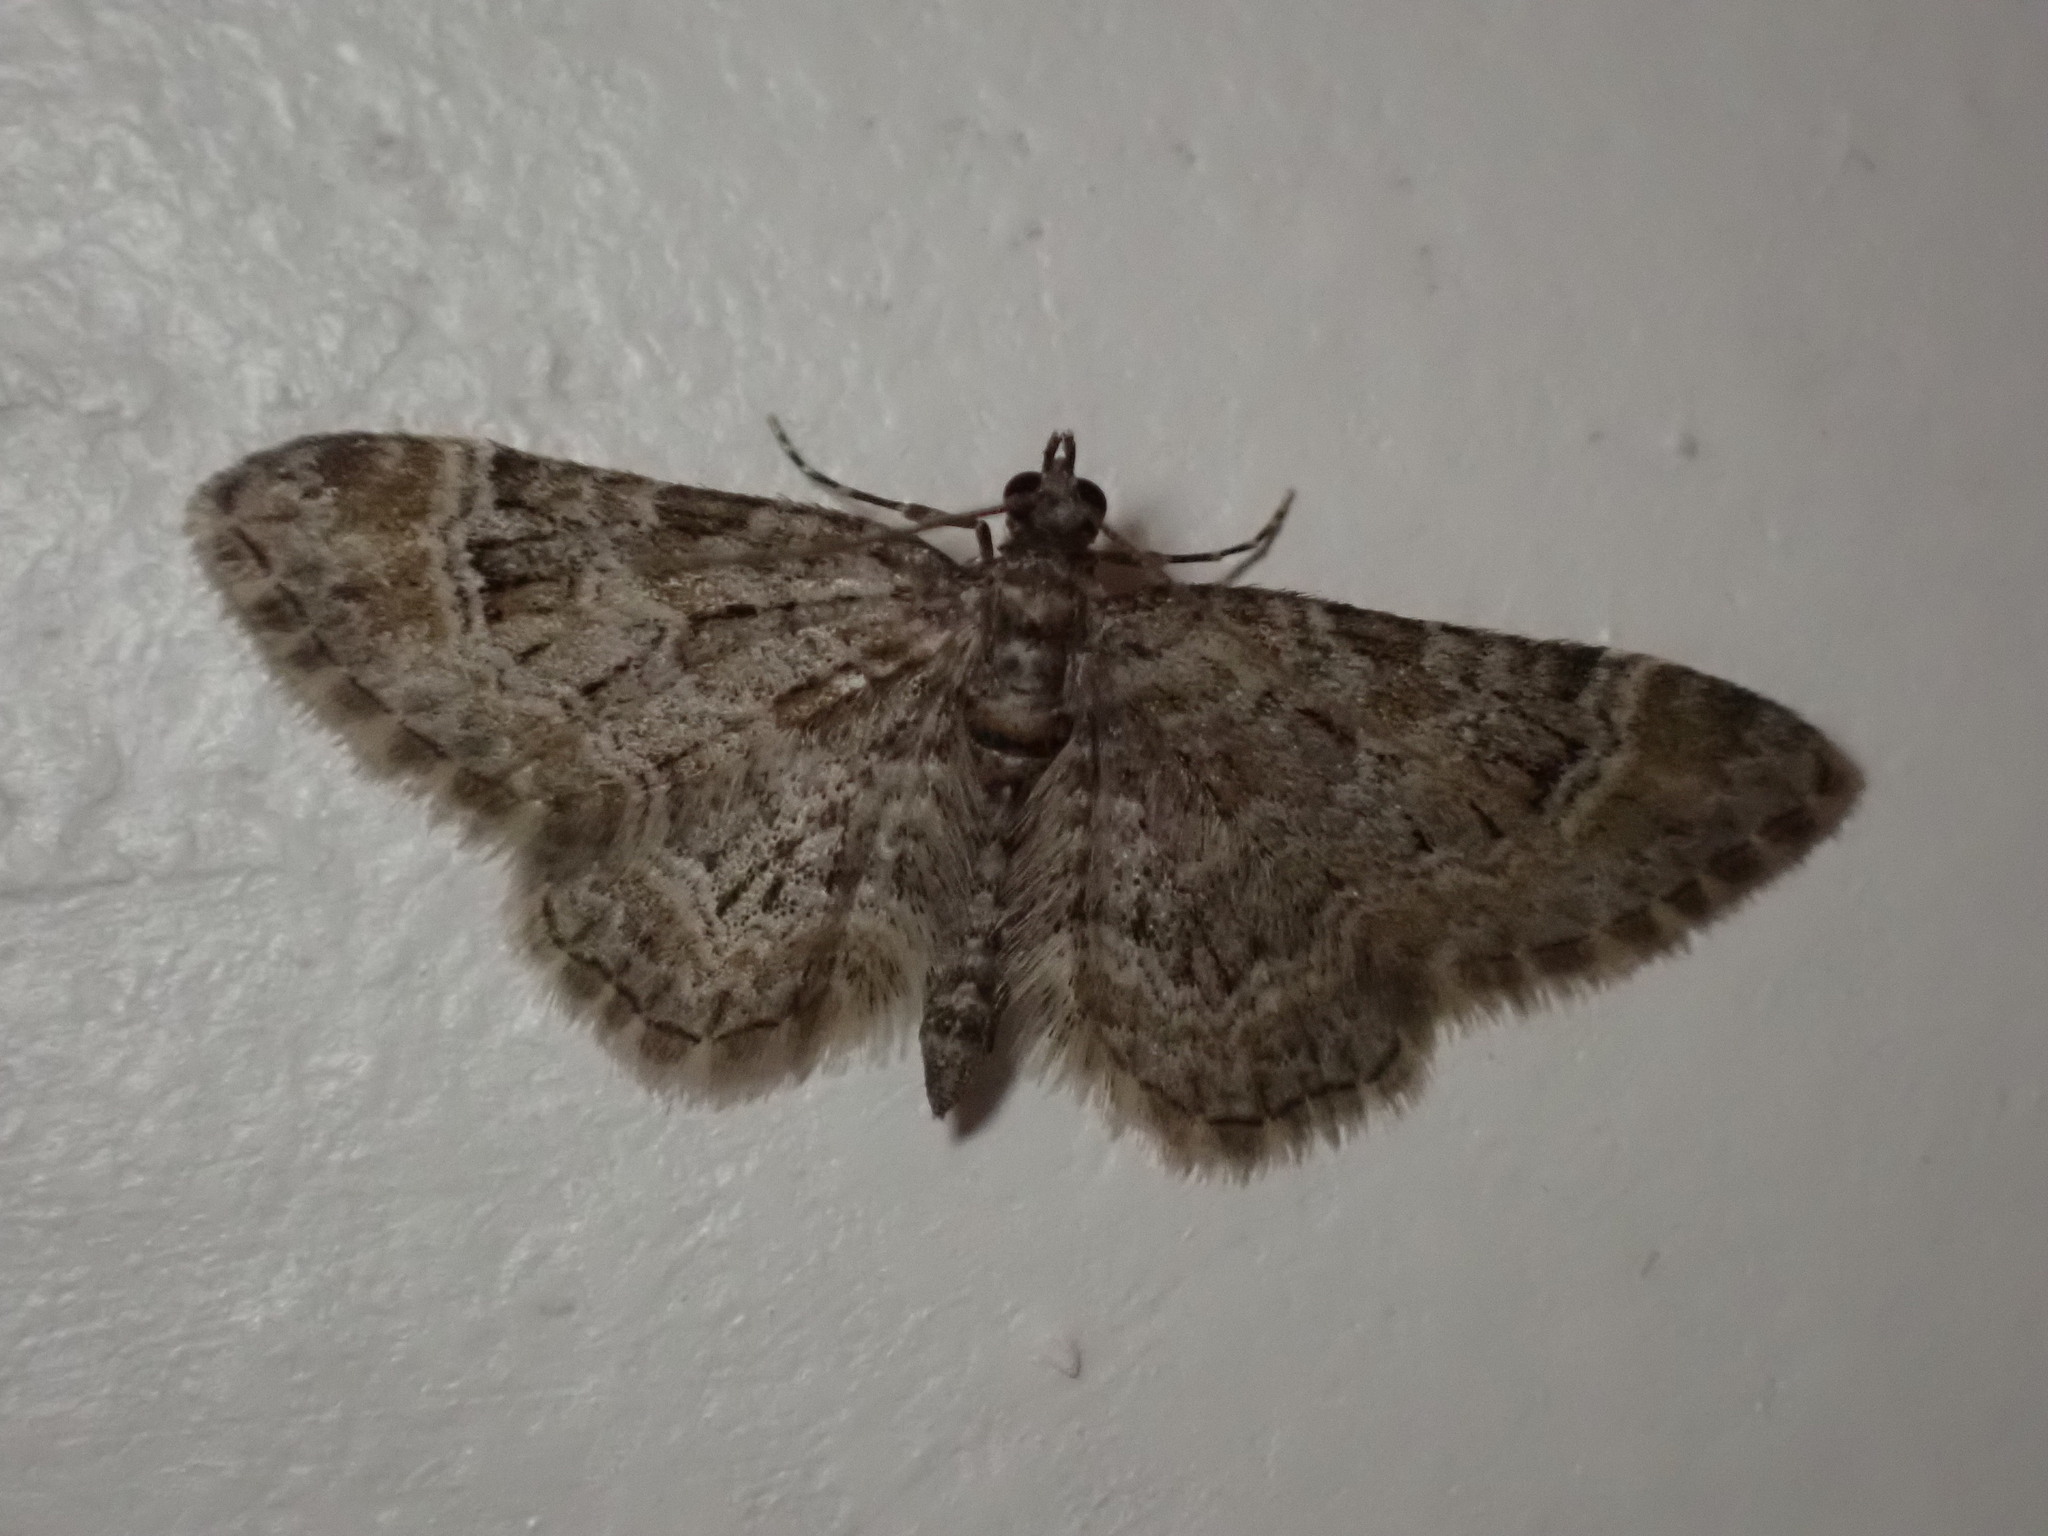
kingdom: Animalia
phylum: Arthropoda
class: Insecta
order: Lepidoptera
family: Geometridae
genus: Gymnoscelis
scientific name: Gymnoscelis rufifasciata
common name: Double-striped pug
